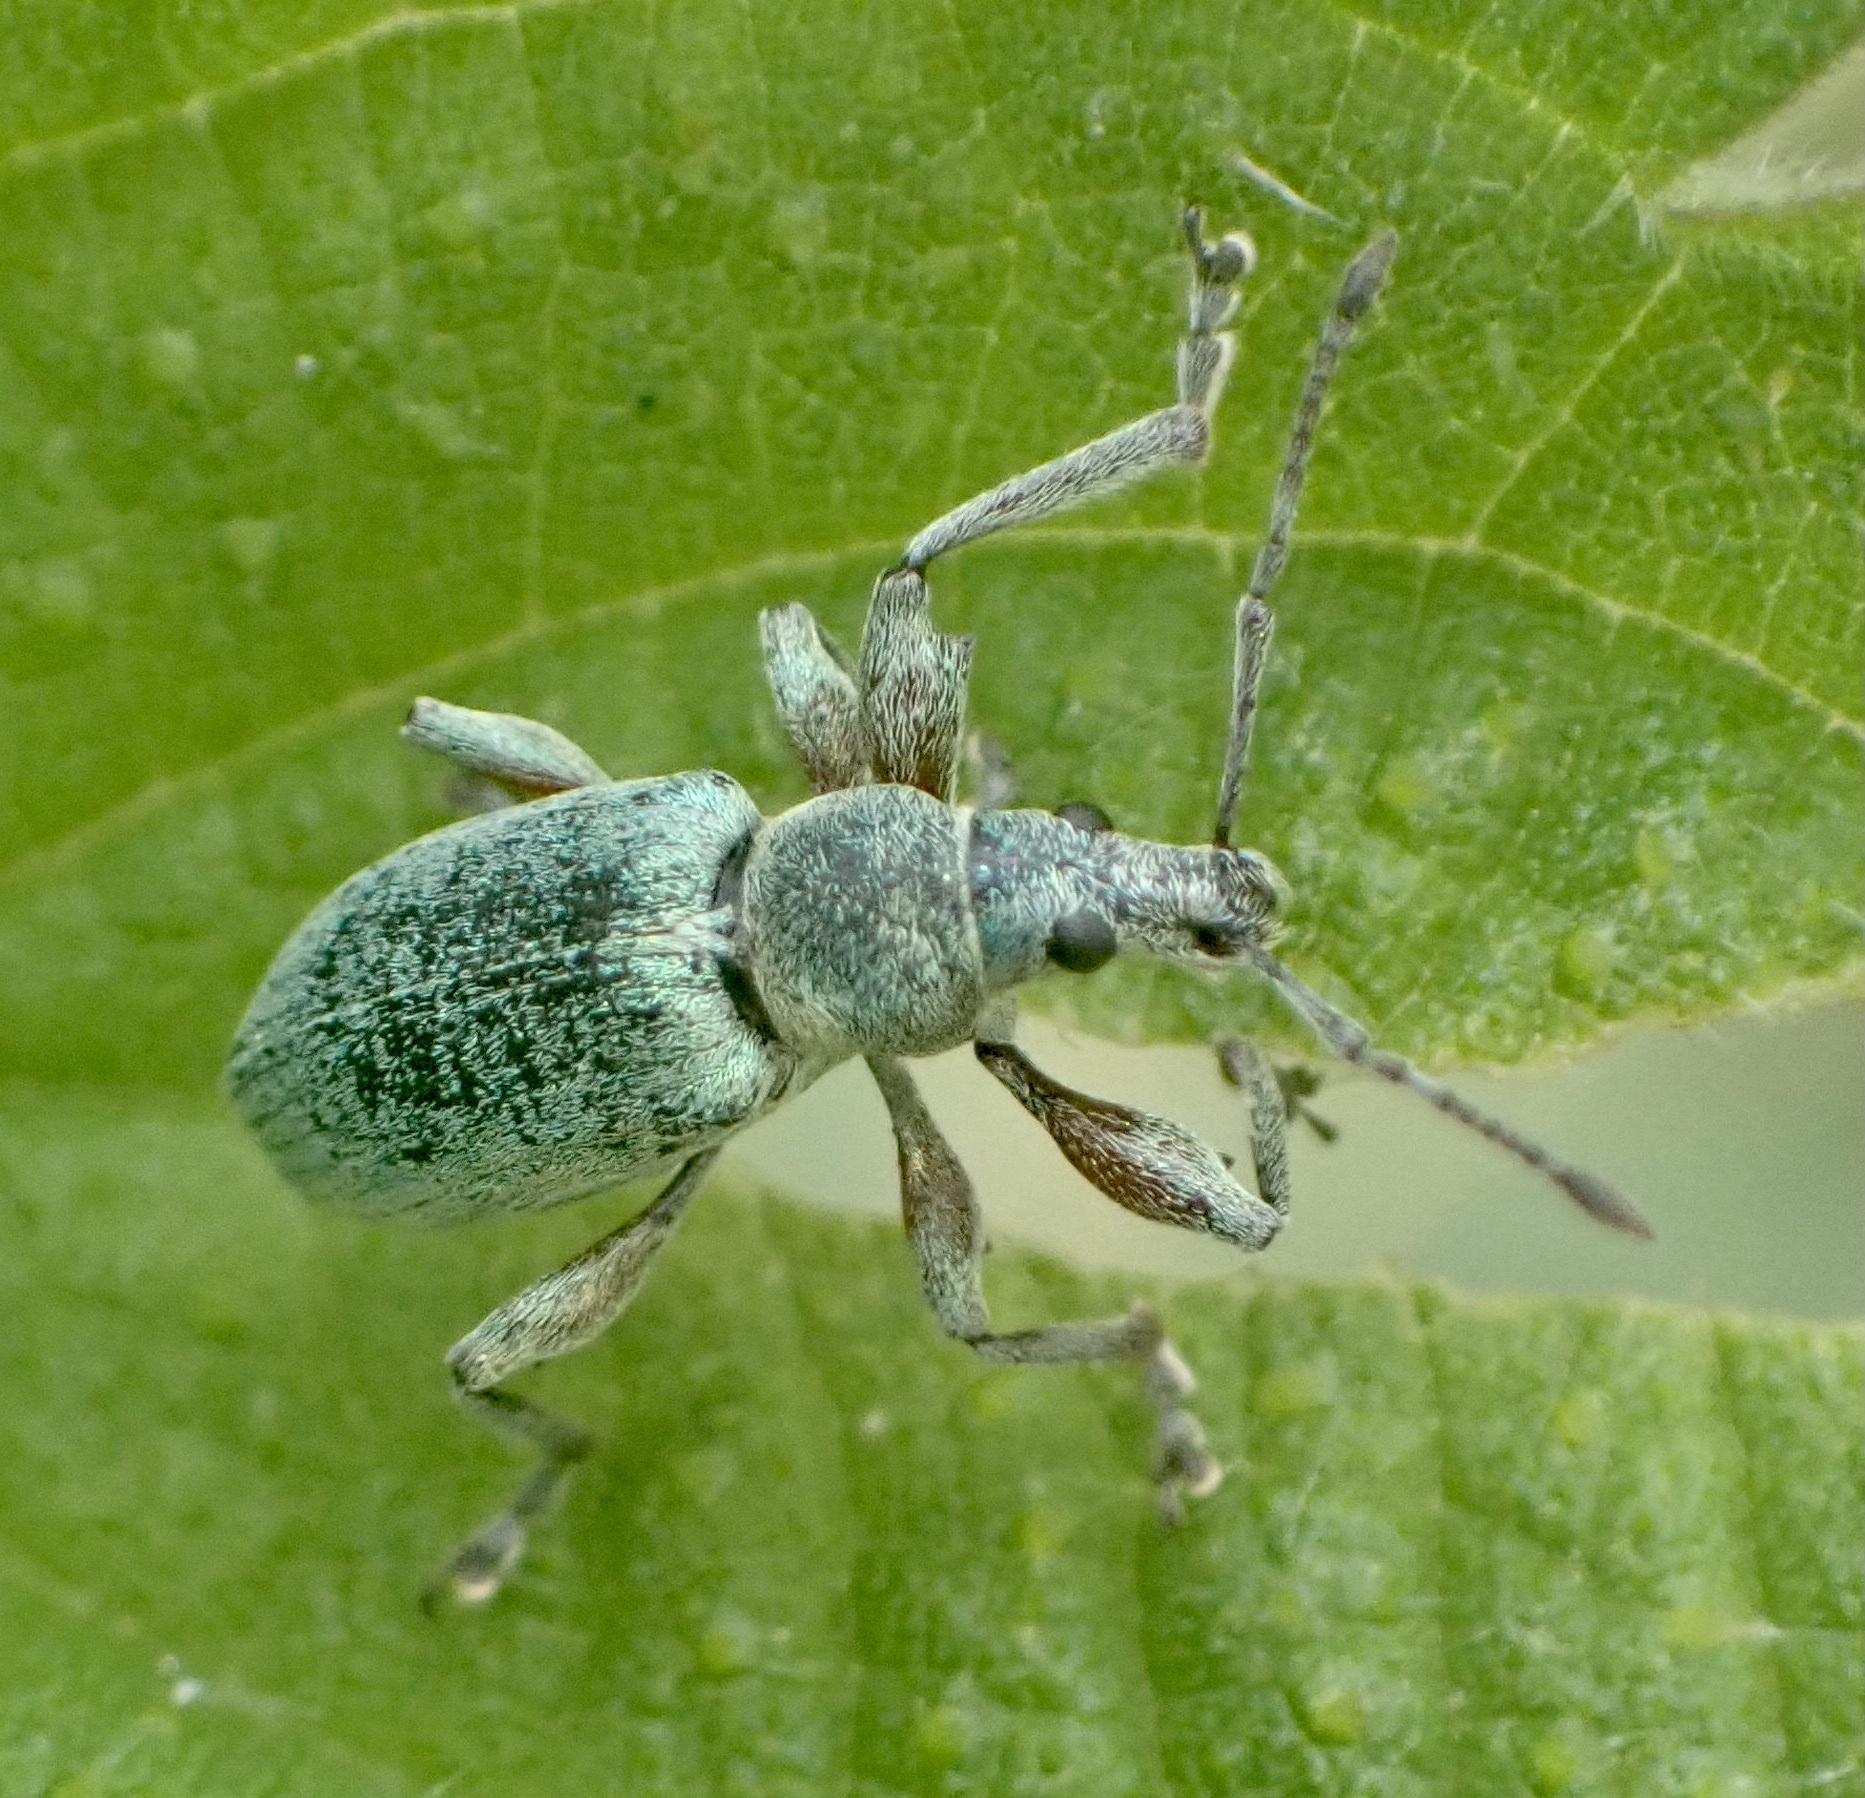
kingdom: Animalia
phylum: Arthropoda
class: Insecta
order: Coleoptera
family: Curculionidae
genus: Phyllobius
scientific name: Phyllobius pomaceus
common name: Green nettle weevil
